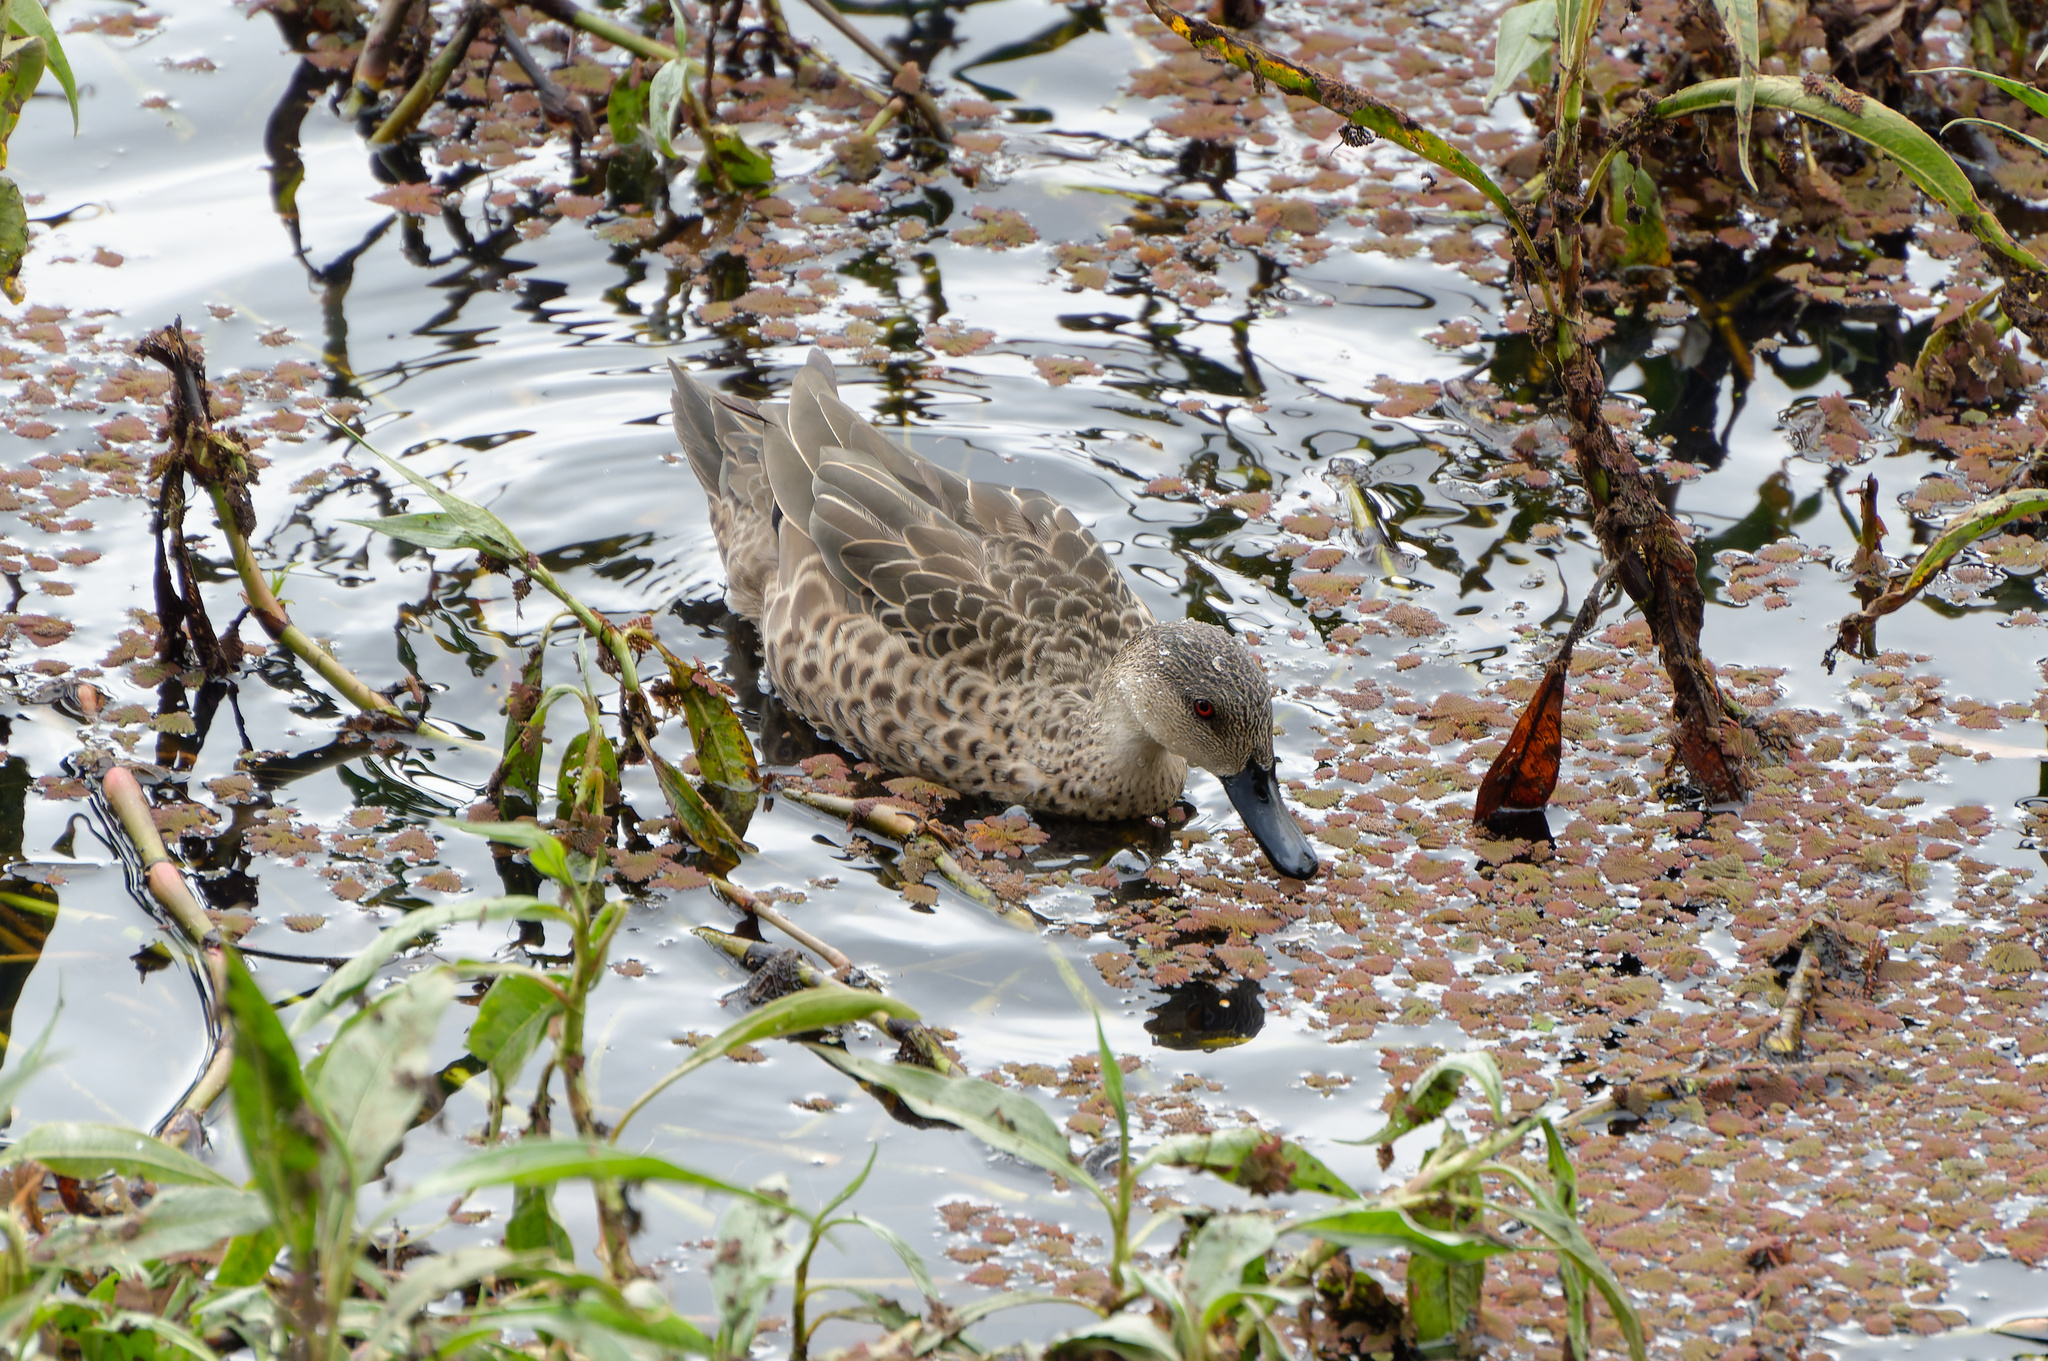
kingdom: Animalia
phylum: Chordata
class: Aves
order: Anseriformes
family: Anatidae
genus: Anas
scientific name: Anas gracilis
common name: Grey teal
